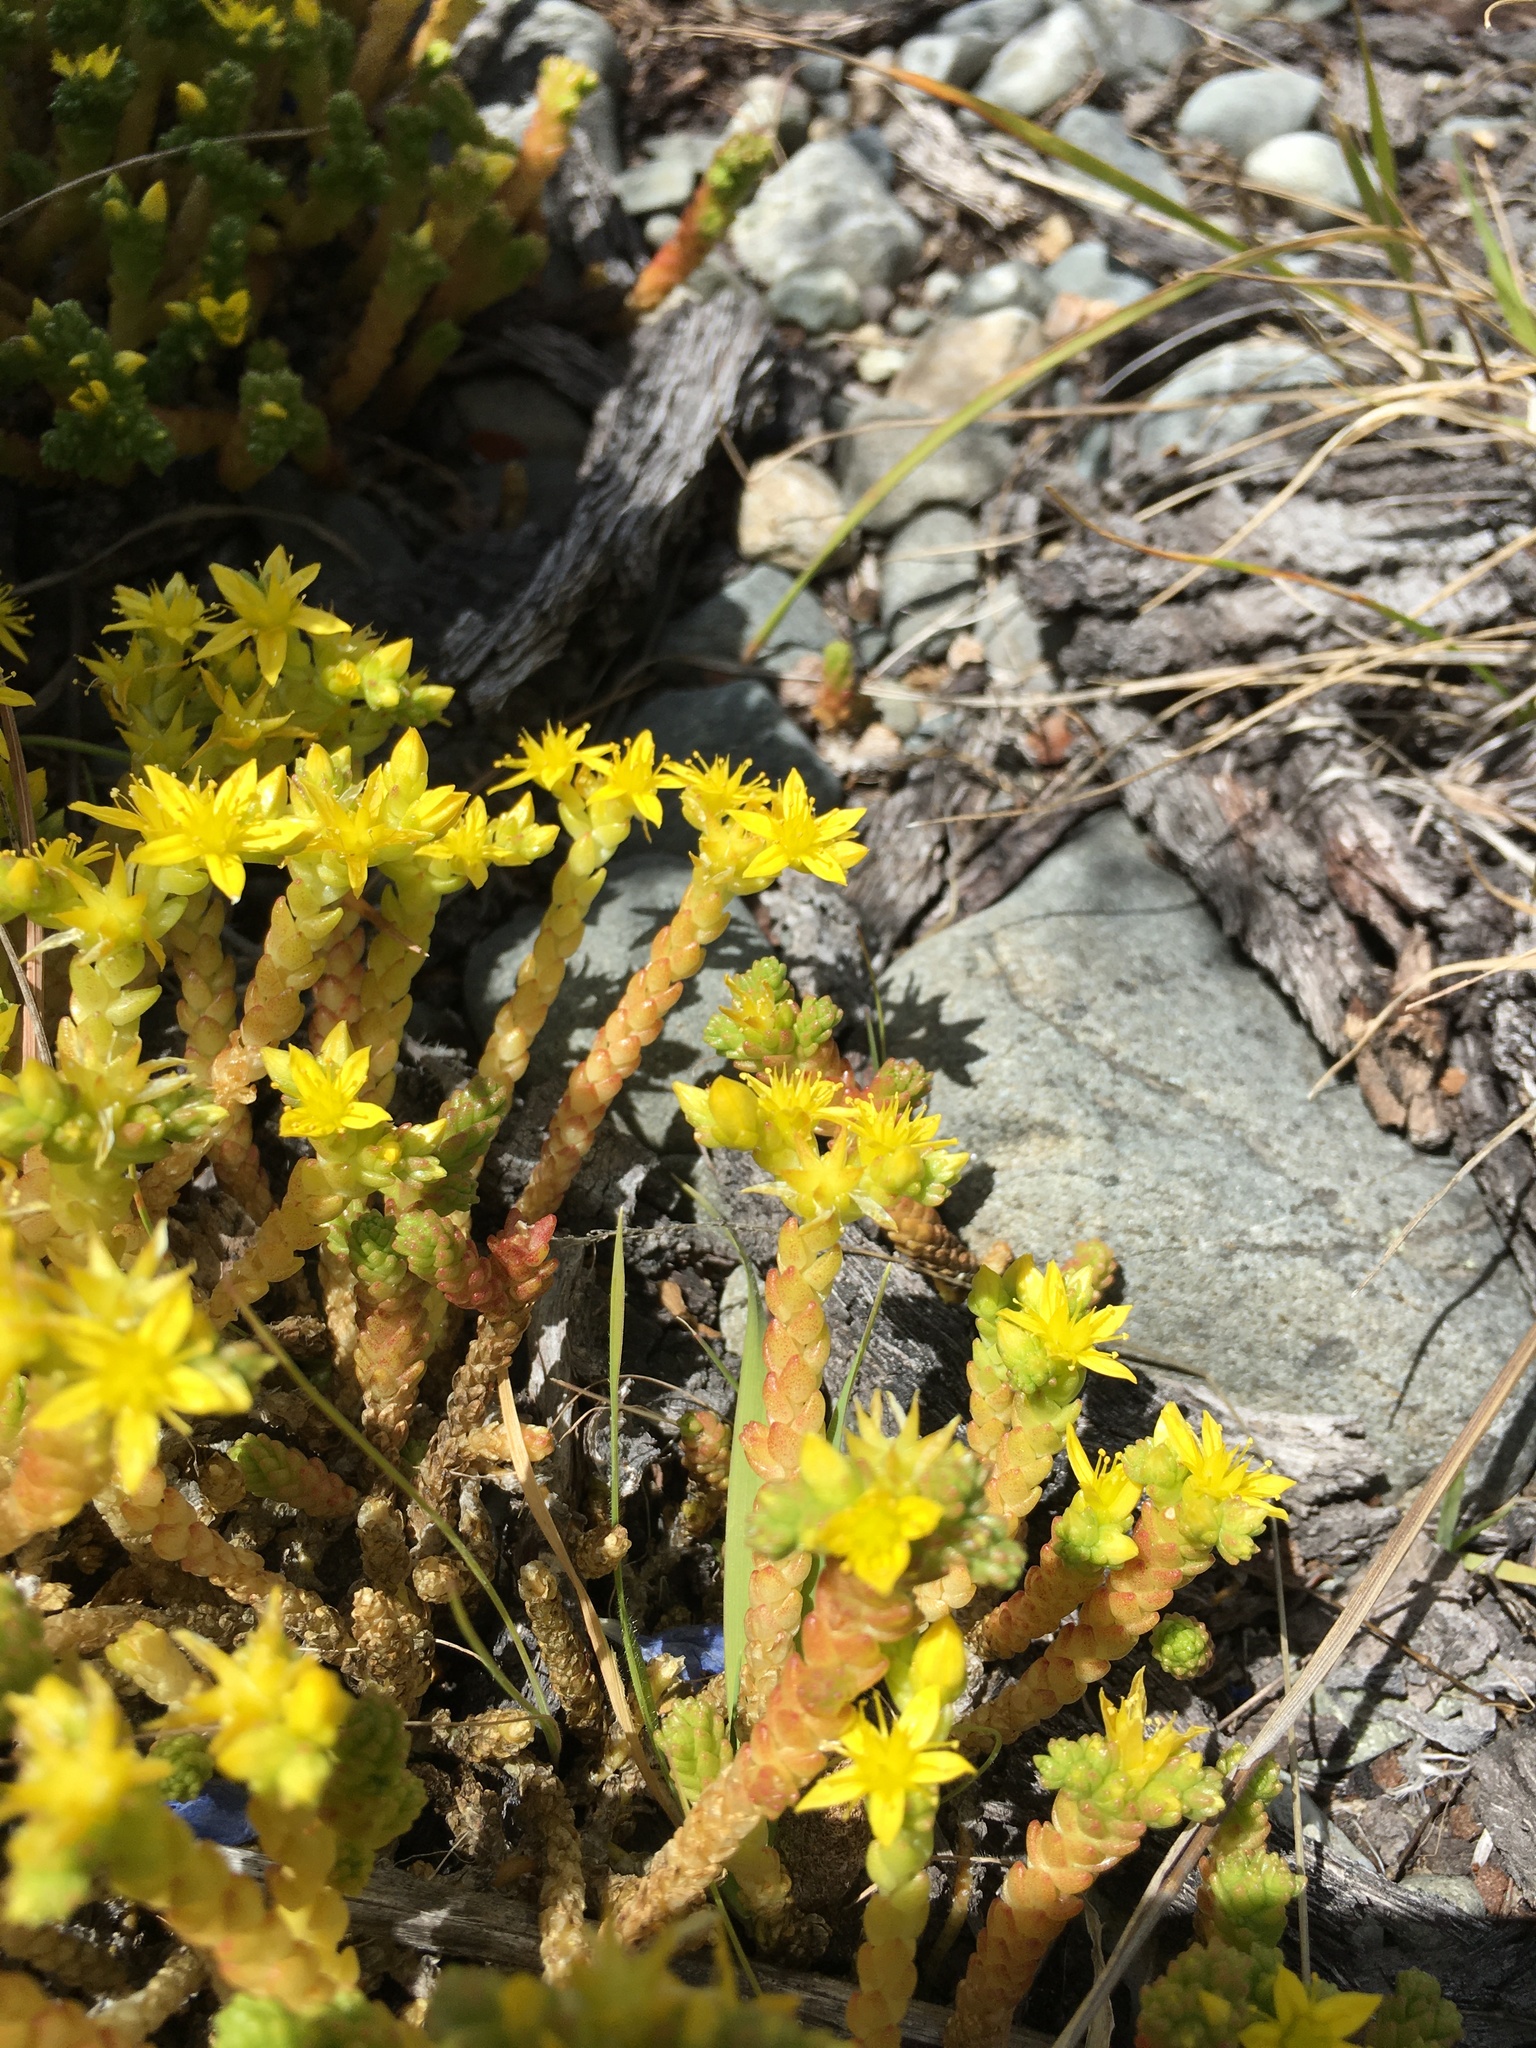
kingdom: Plantae
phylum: Tracheophyta
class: Magnoliopsida
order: Saxifragales
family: Crassulaceae
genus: Sedum
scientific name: Sedum acre
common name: Biting stonecrop
